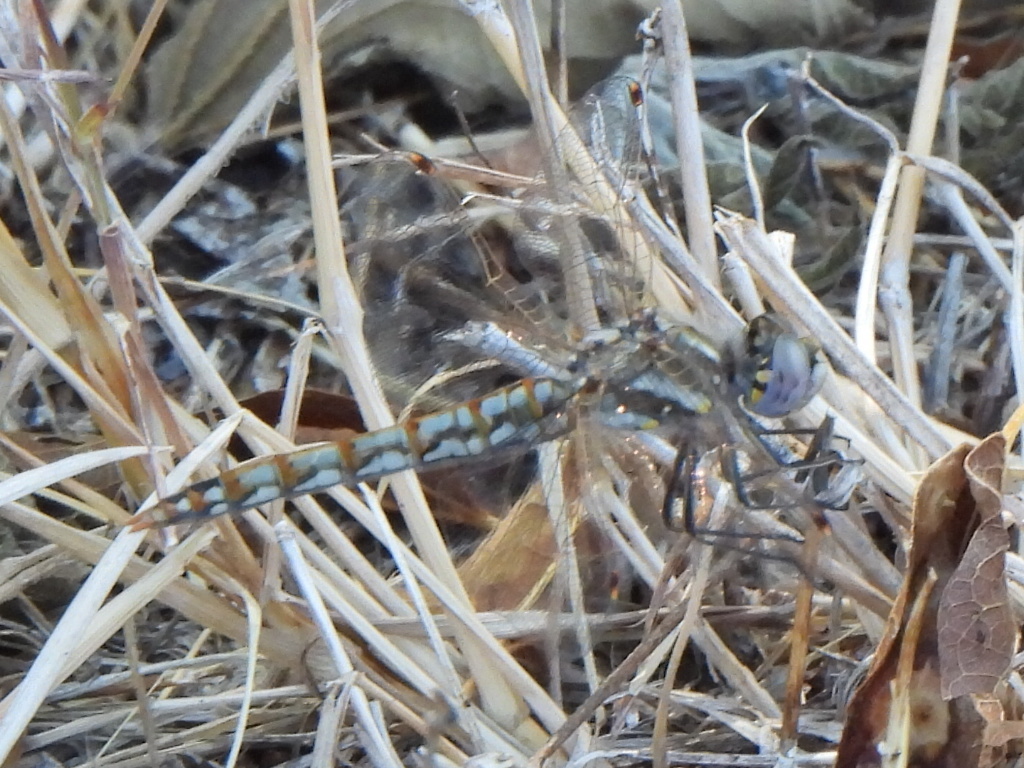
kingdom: Animalia
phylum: Arthropoda
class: Insecta
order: Odonata
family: Libellulidae
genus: Sympetrum
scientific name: Sympetrum corruptum
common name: Variegated meadowhawk
